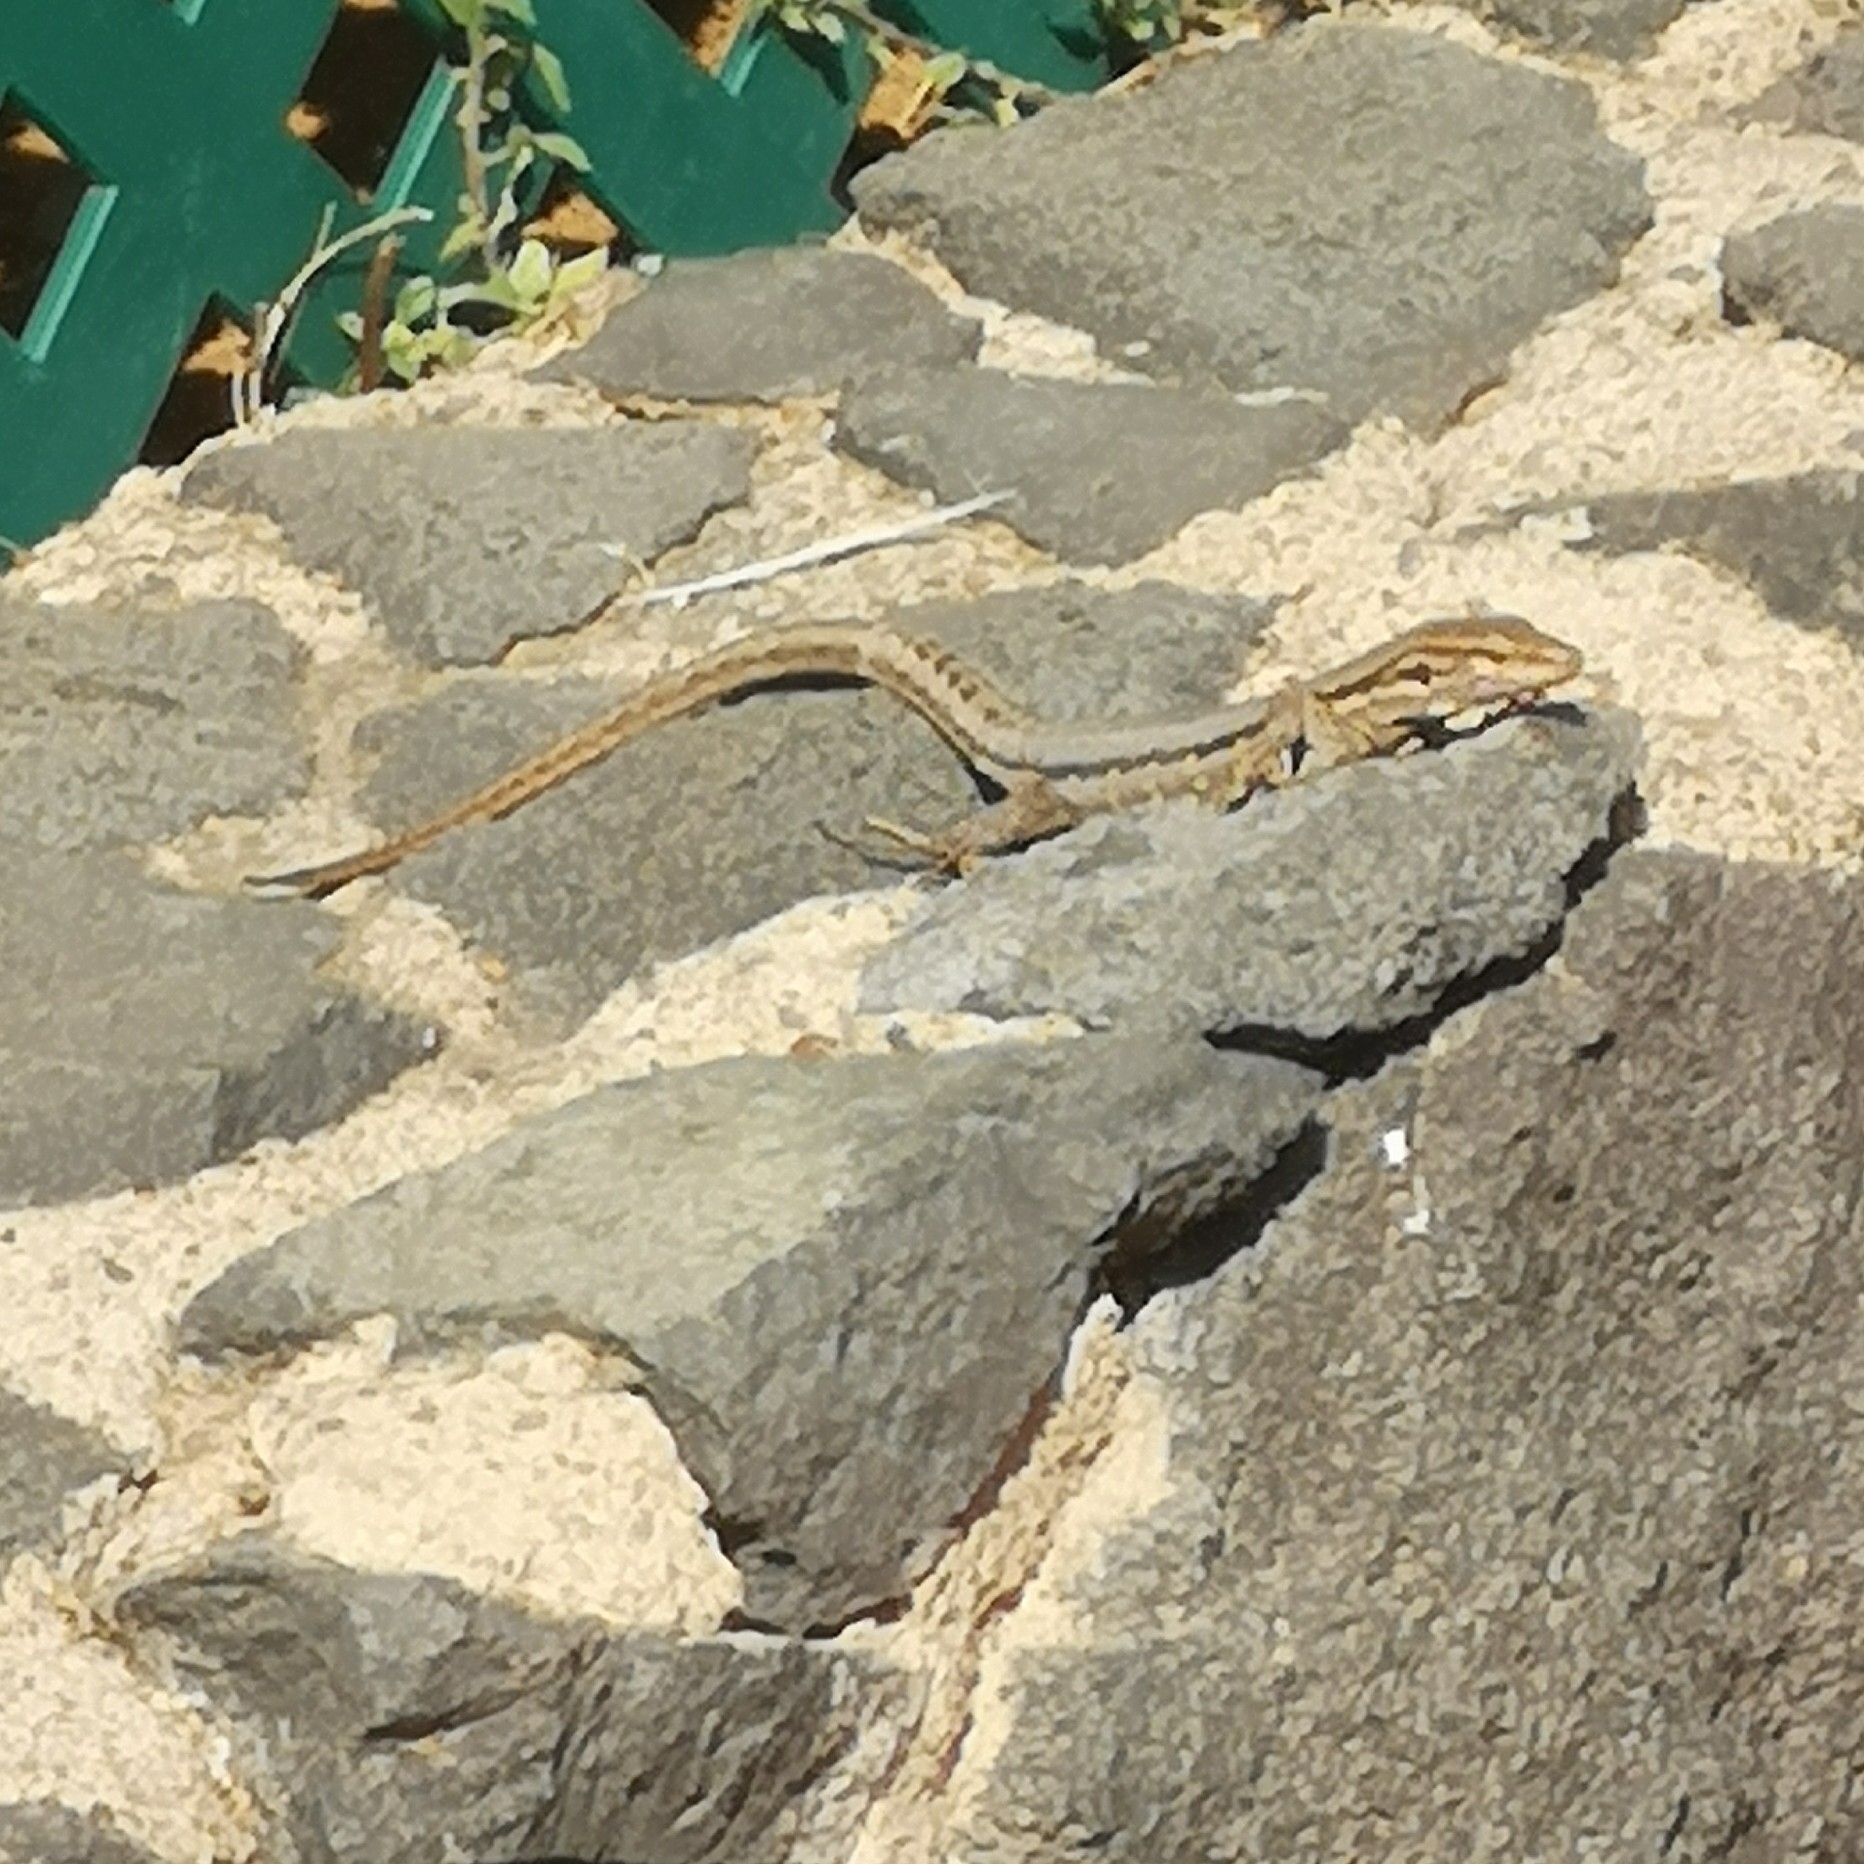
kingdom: Animalia
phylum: Chordata
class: Squamata
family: Lacertidae
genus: Gallotia
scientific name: Gallotia galloti
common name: Gallot's lizard
